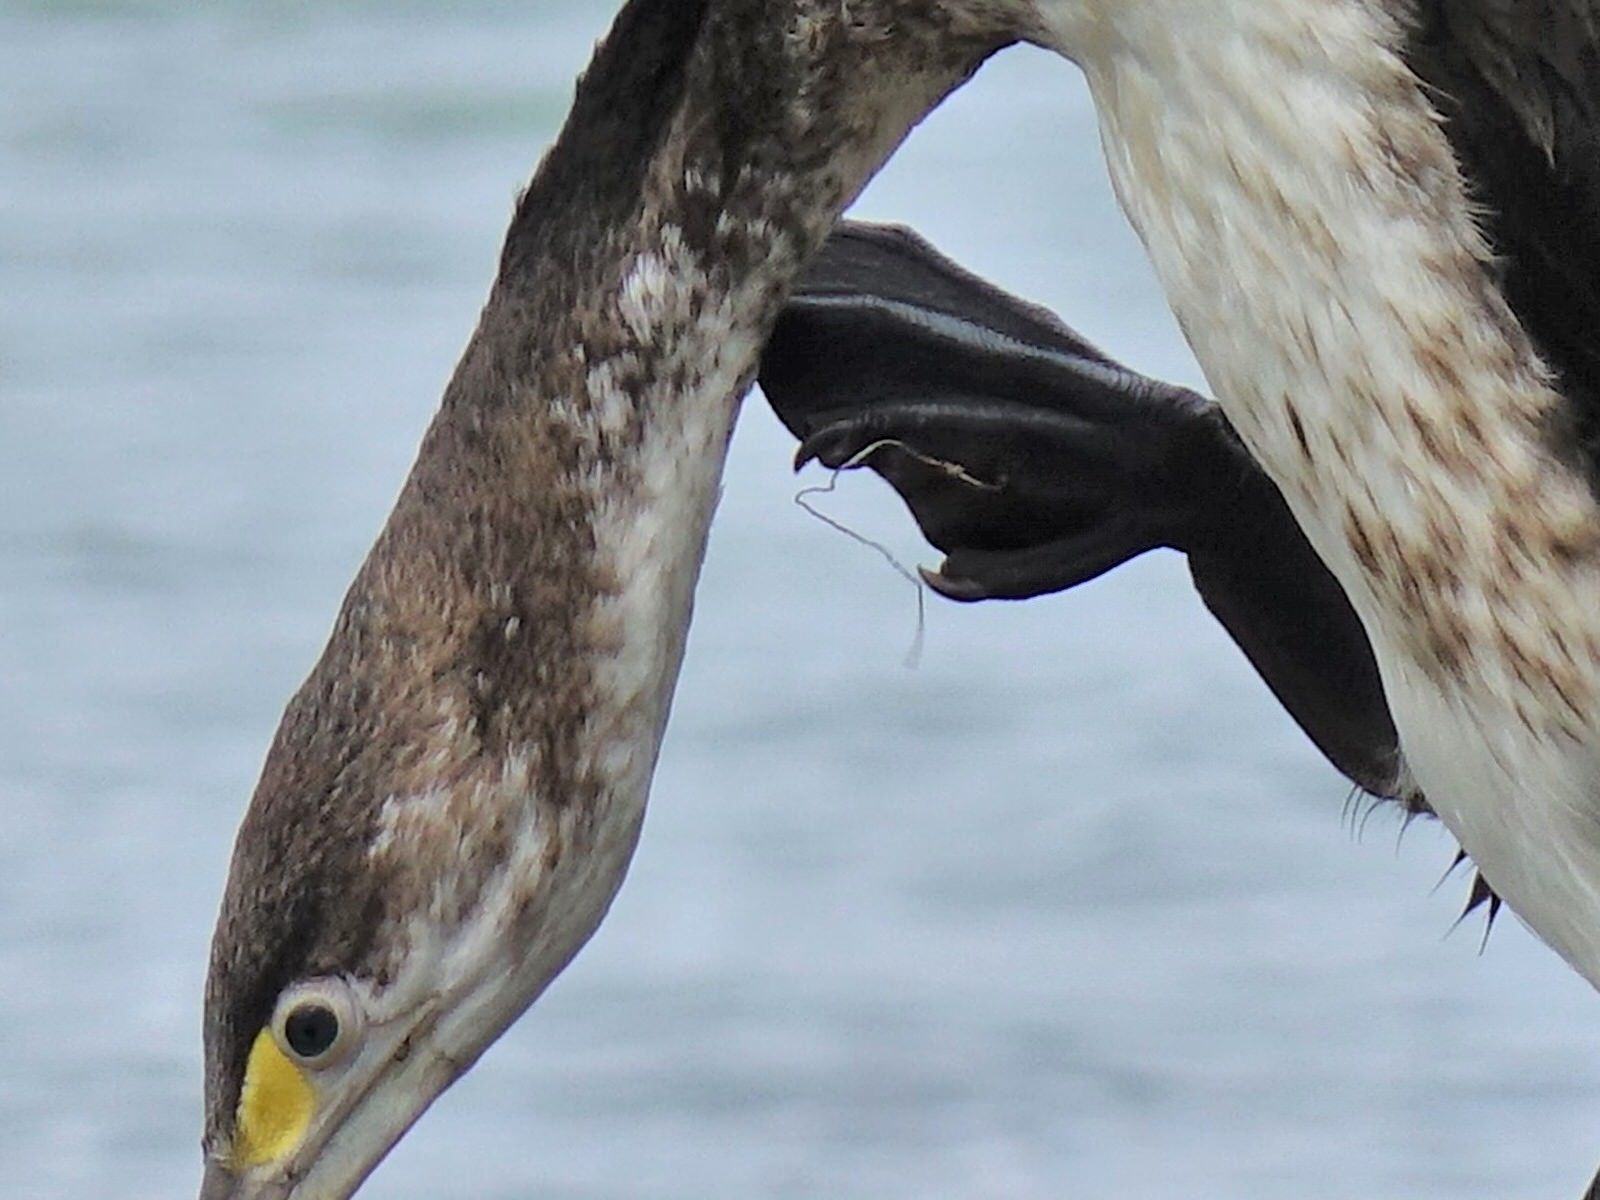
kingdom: Animalia
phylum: Chordata
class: Aves
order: Suliformes
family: Phalacrocoracidae
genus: Phalacrocorax
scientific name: Phalacrocorax varius
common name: Pied cormorant
